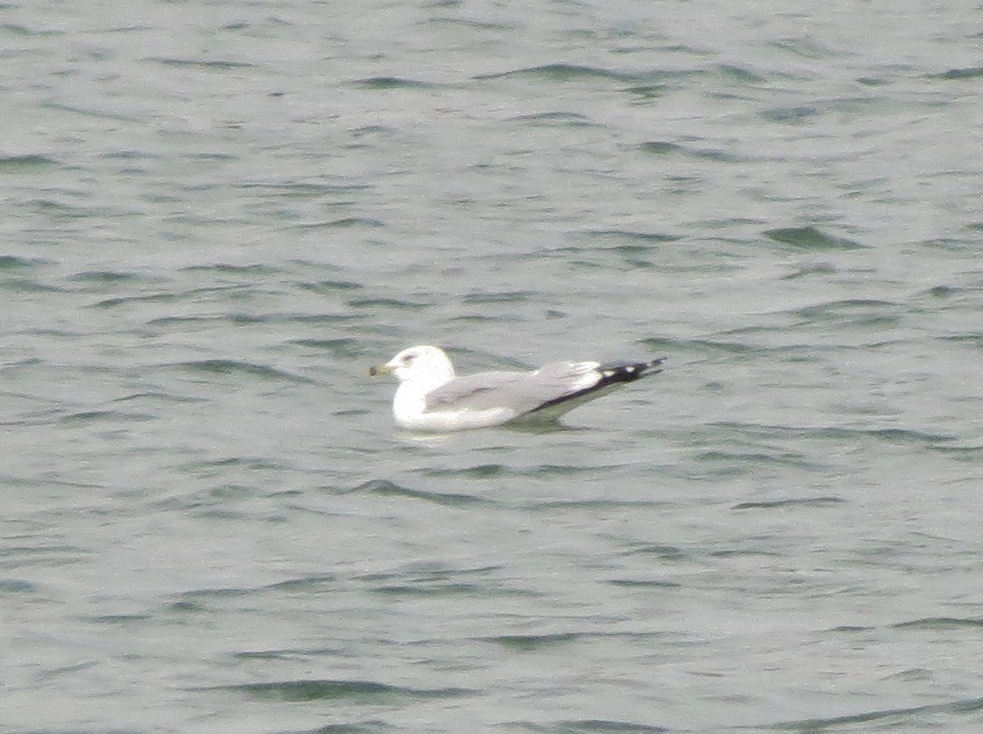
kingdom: Animalia
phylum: Chordata
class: Aves
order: Charadriiformes
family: Laridae
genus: Larus
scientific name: Larus delawarensis
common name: Ring-billed gull
